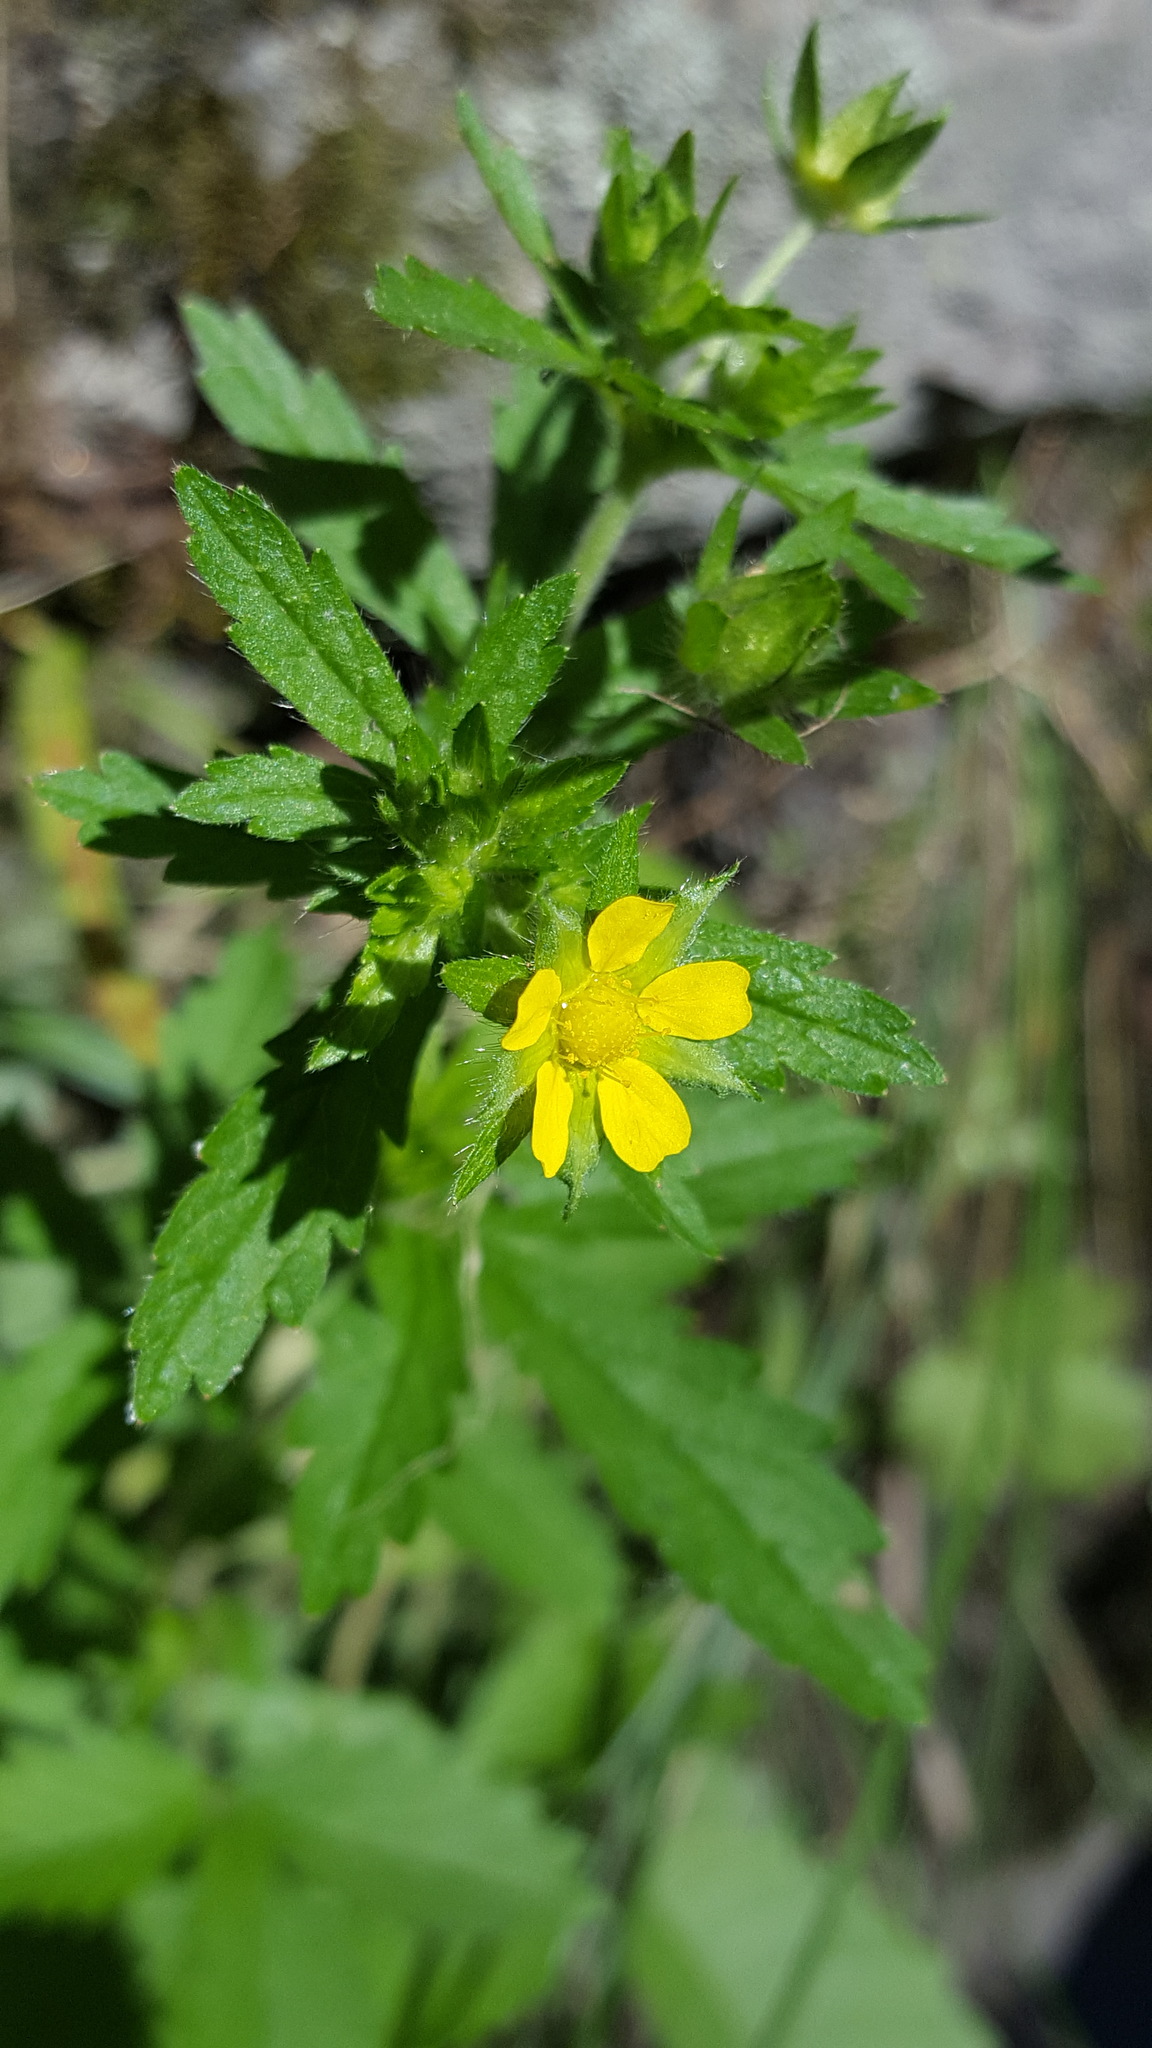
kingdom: Plantae
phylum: Tracheophyta
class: Magnoliopsida
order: Rosales
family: Rosaceae
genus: Potentilla
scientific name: Potentilla norvegica
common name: Ternate-leaved cinquefoil
